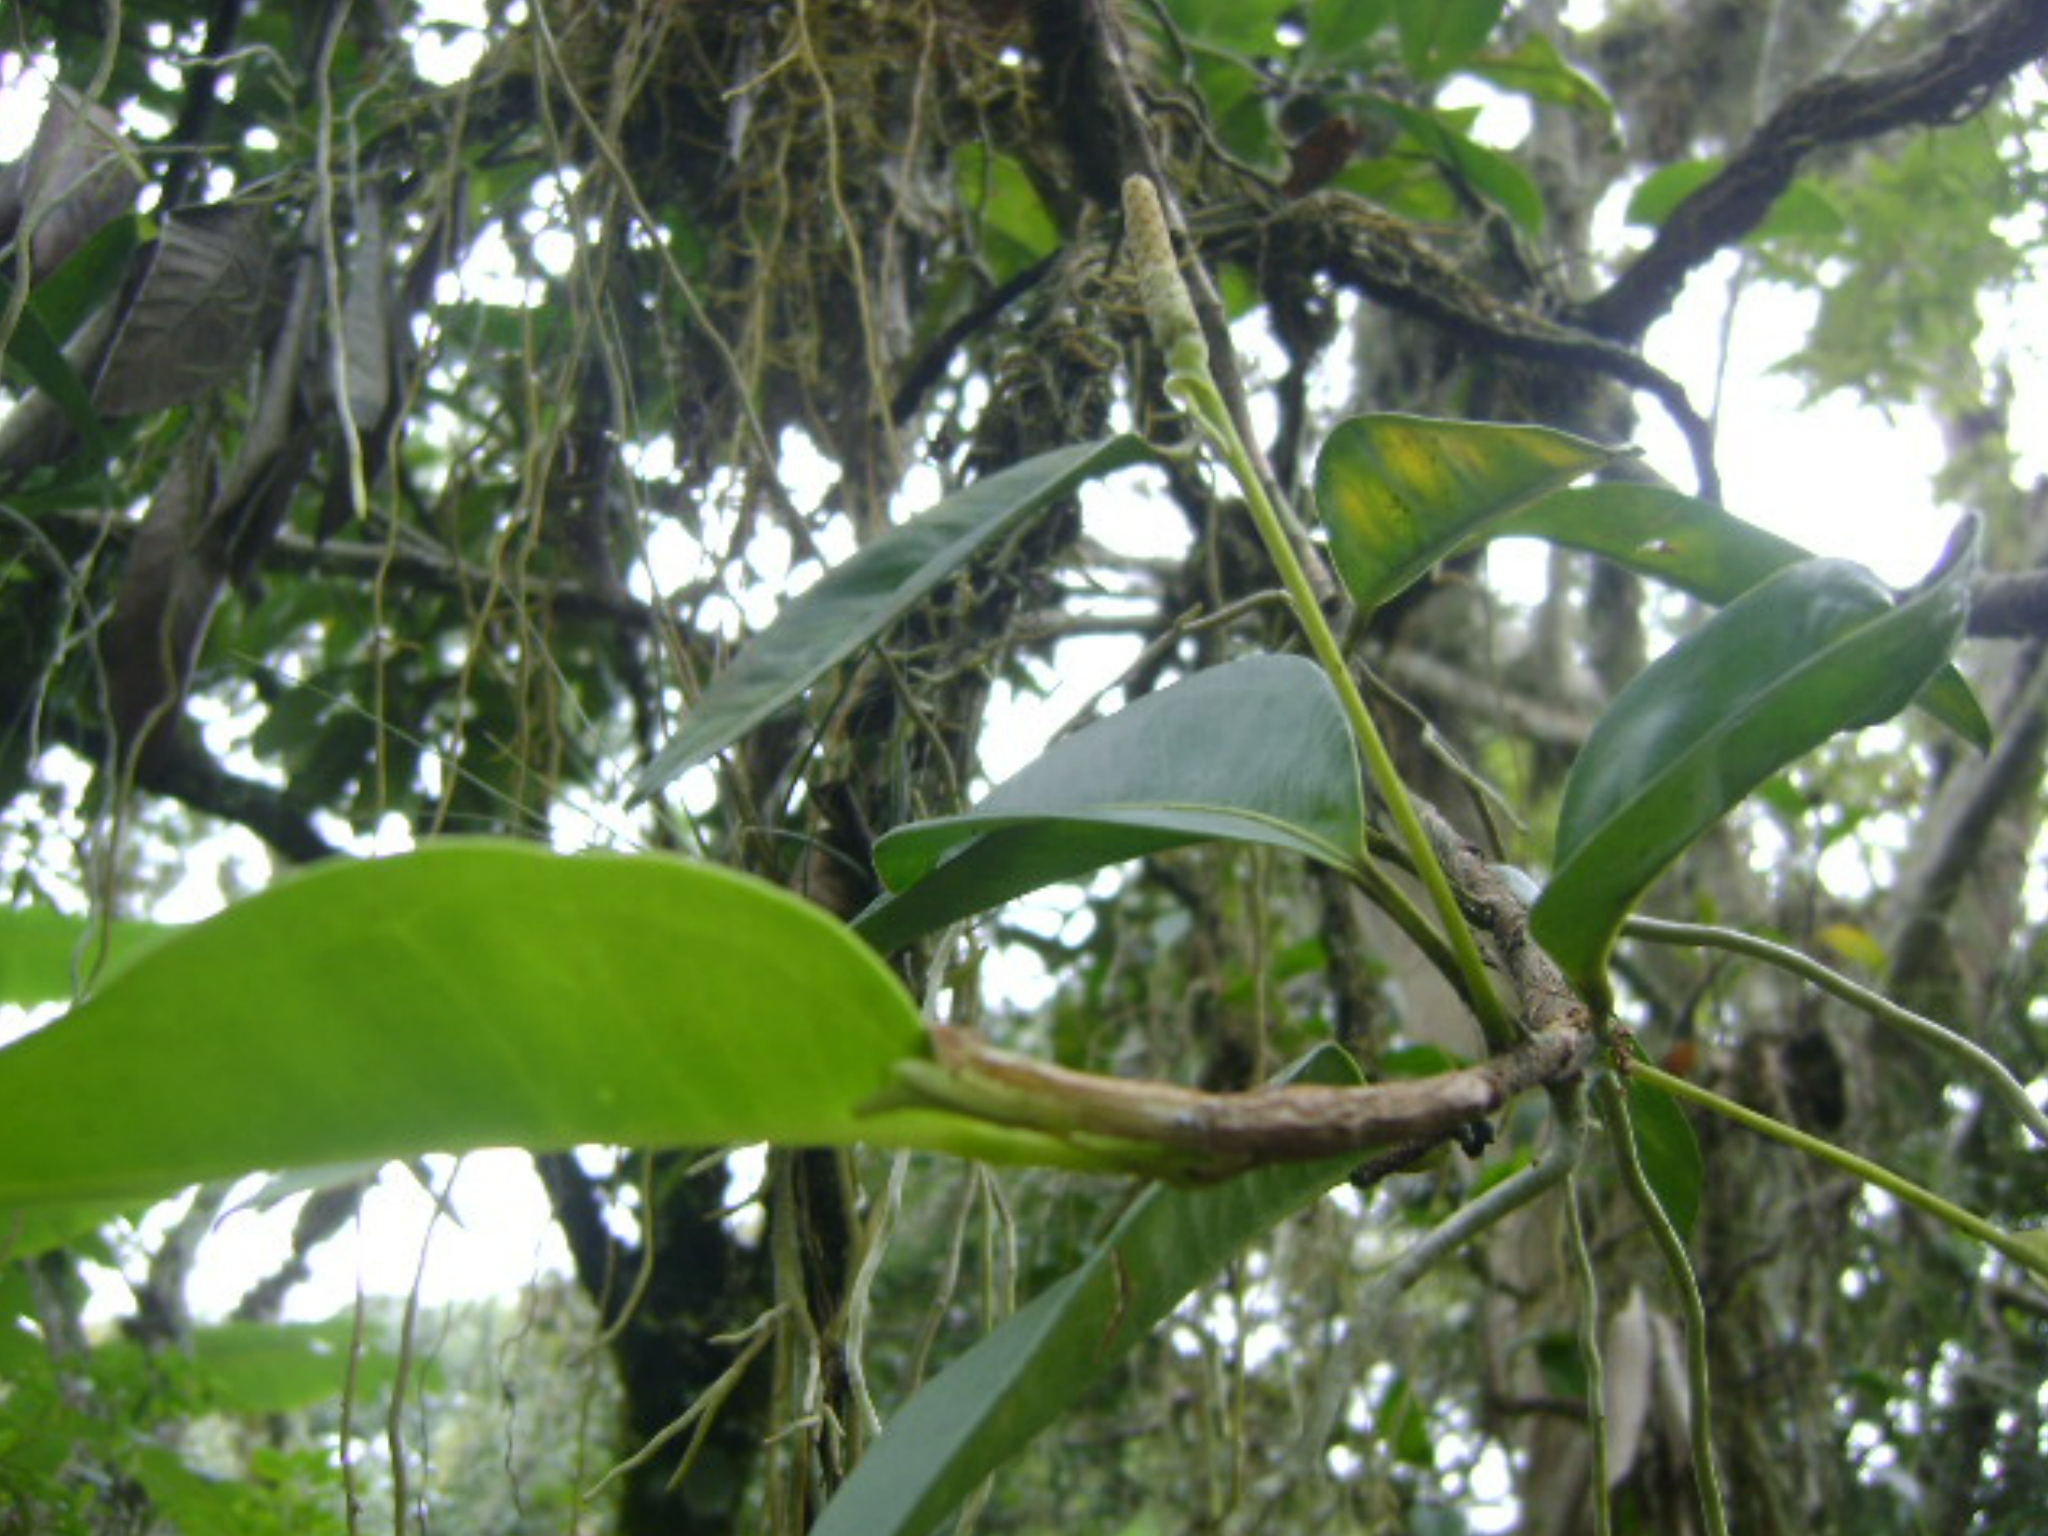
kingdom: Plantae
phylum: Tracheophyta
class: Liliopsida
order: Alismatales
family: Araceae
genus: Anthurium
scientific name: Anthurium scandens
